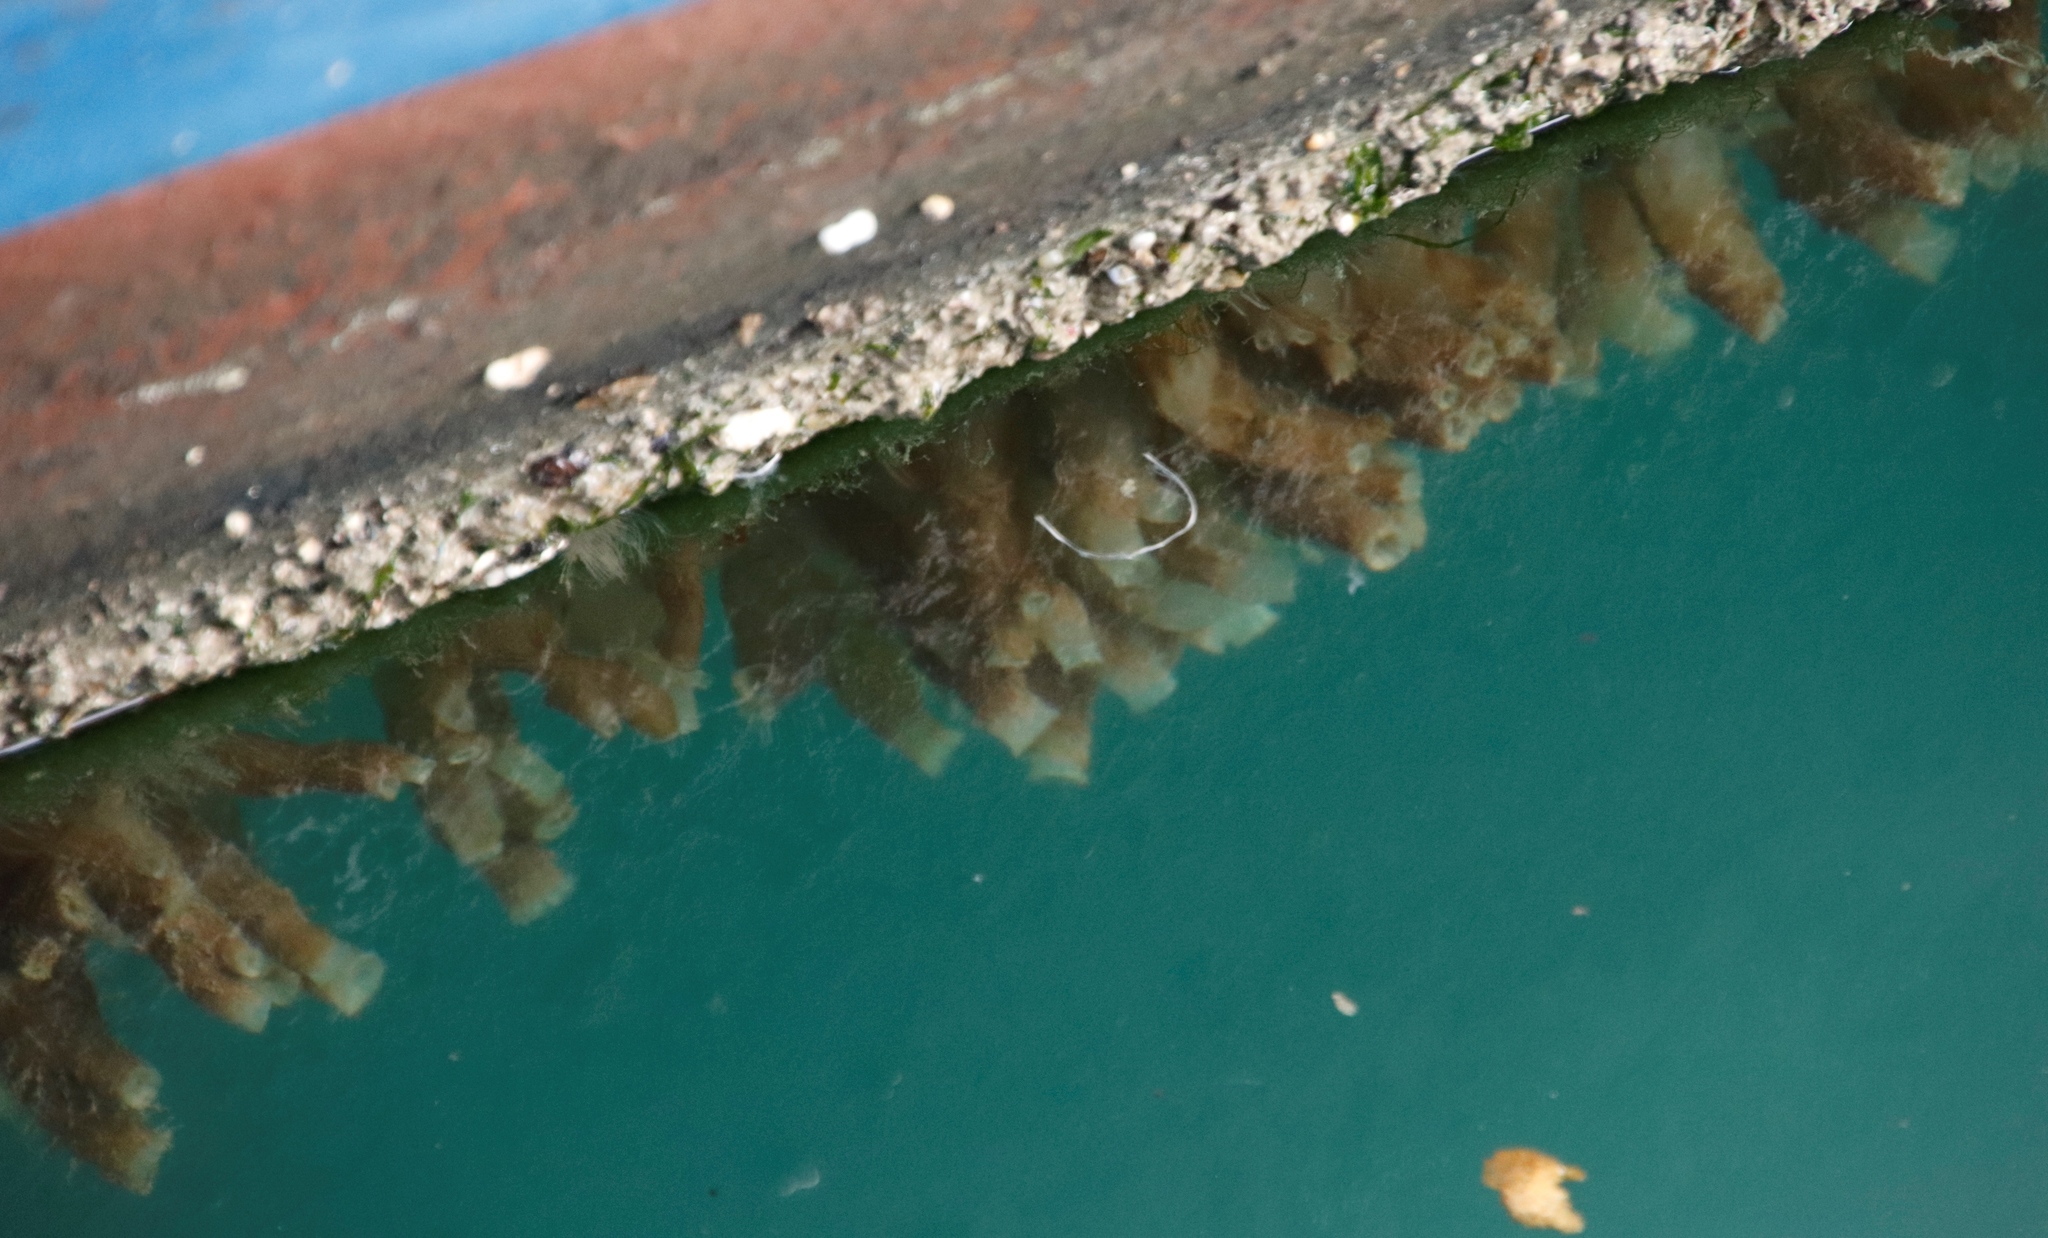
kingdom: Animalia
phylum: Chordata
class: Ascidiacea
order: Phlebobranchia
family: Cionidae
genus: Ciona
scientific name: Ciona robusta
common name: Tunicate
